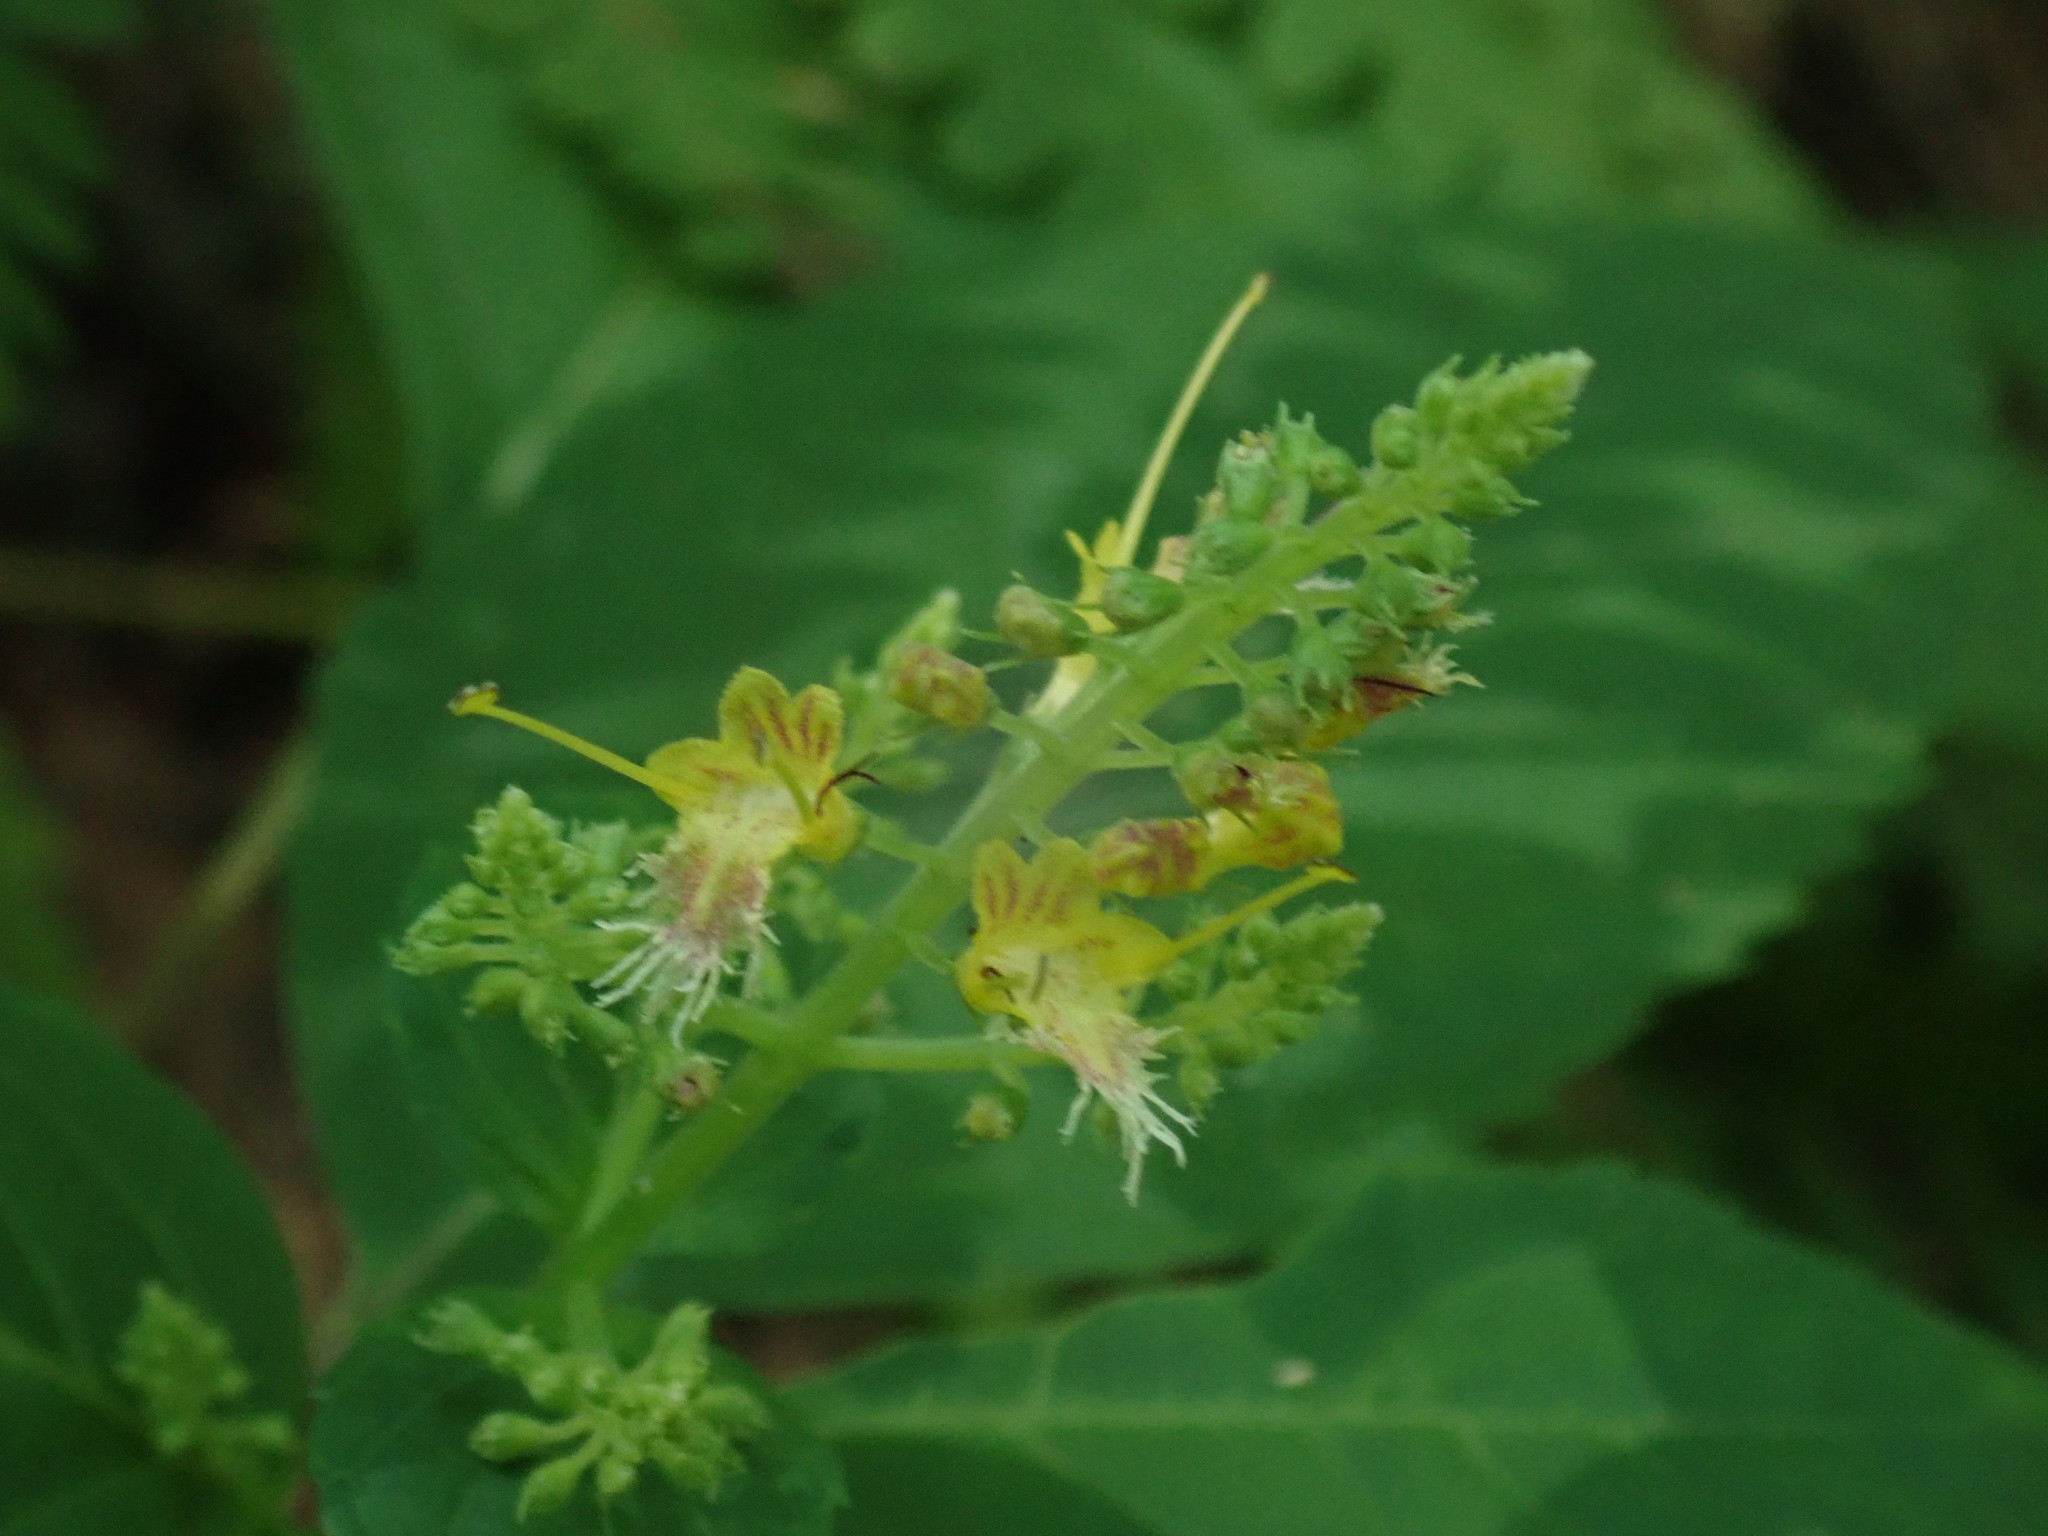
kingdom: Plantae
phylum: Tracheophyta
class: Magnoliopsida
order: Lamiales
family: Lamiaceae
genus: Collinsonia
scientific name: Collinsonia canadensis
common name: Northern horsebalm
